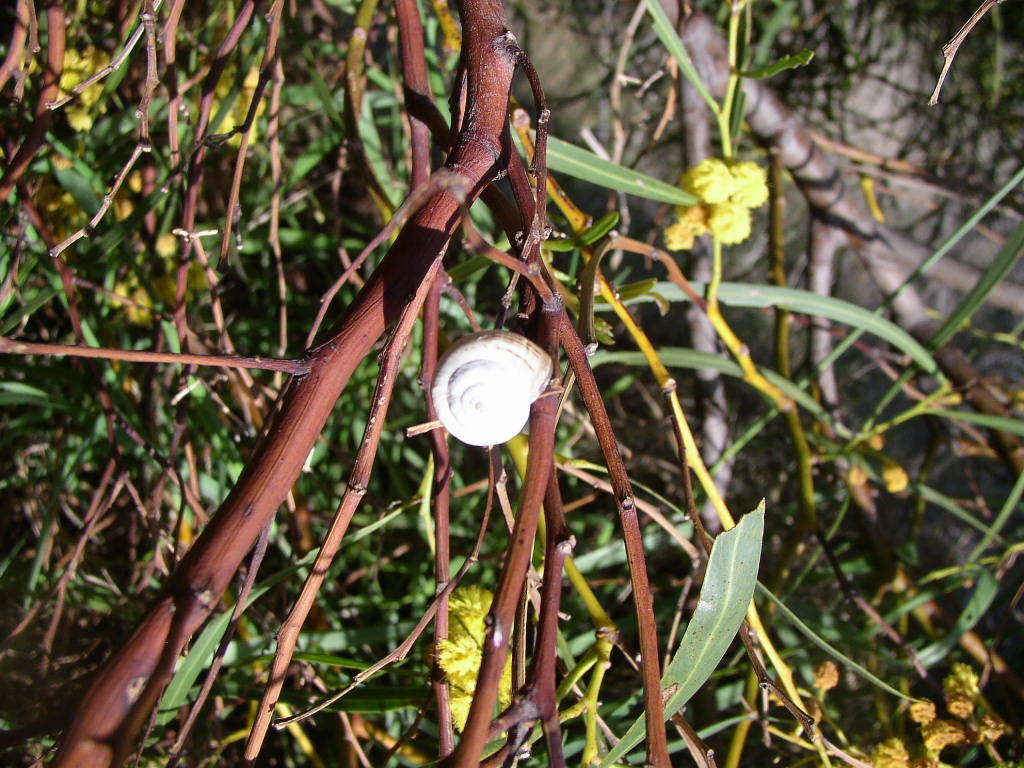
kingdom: Animalia
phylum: Mollusca
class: Gastropoda
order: Stylommatophora
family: Helicidae
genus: Theba
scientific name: Theba pisana
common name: White snail
